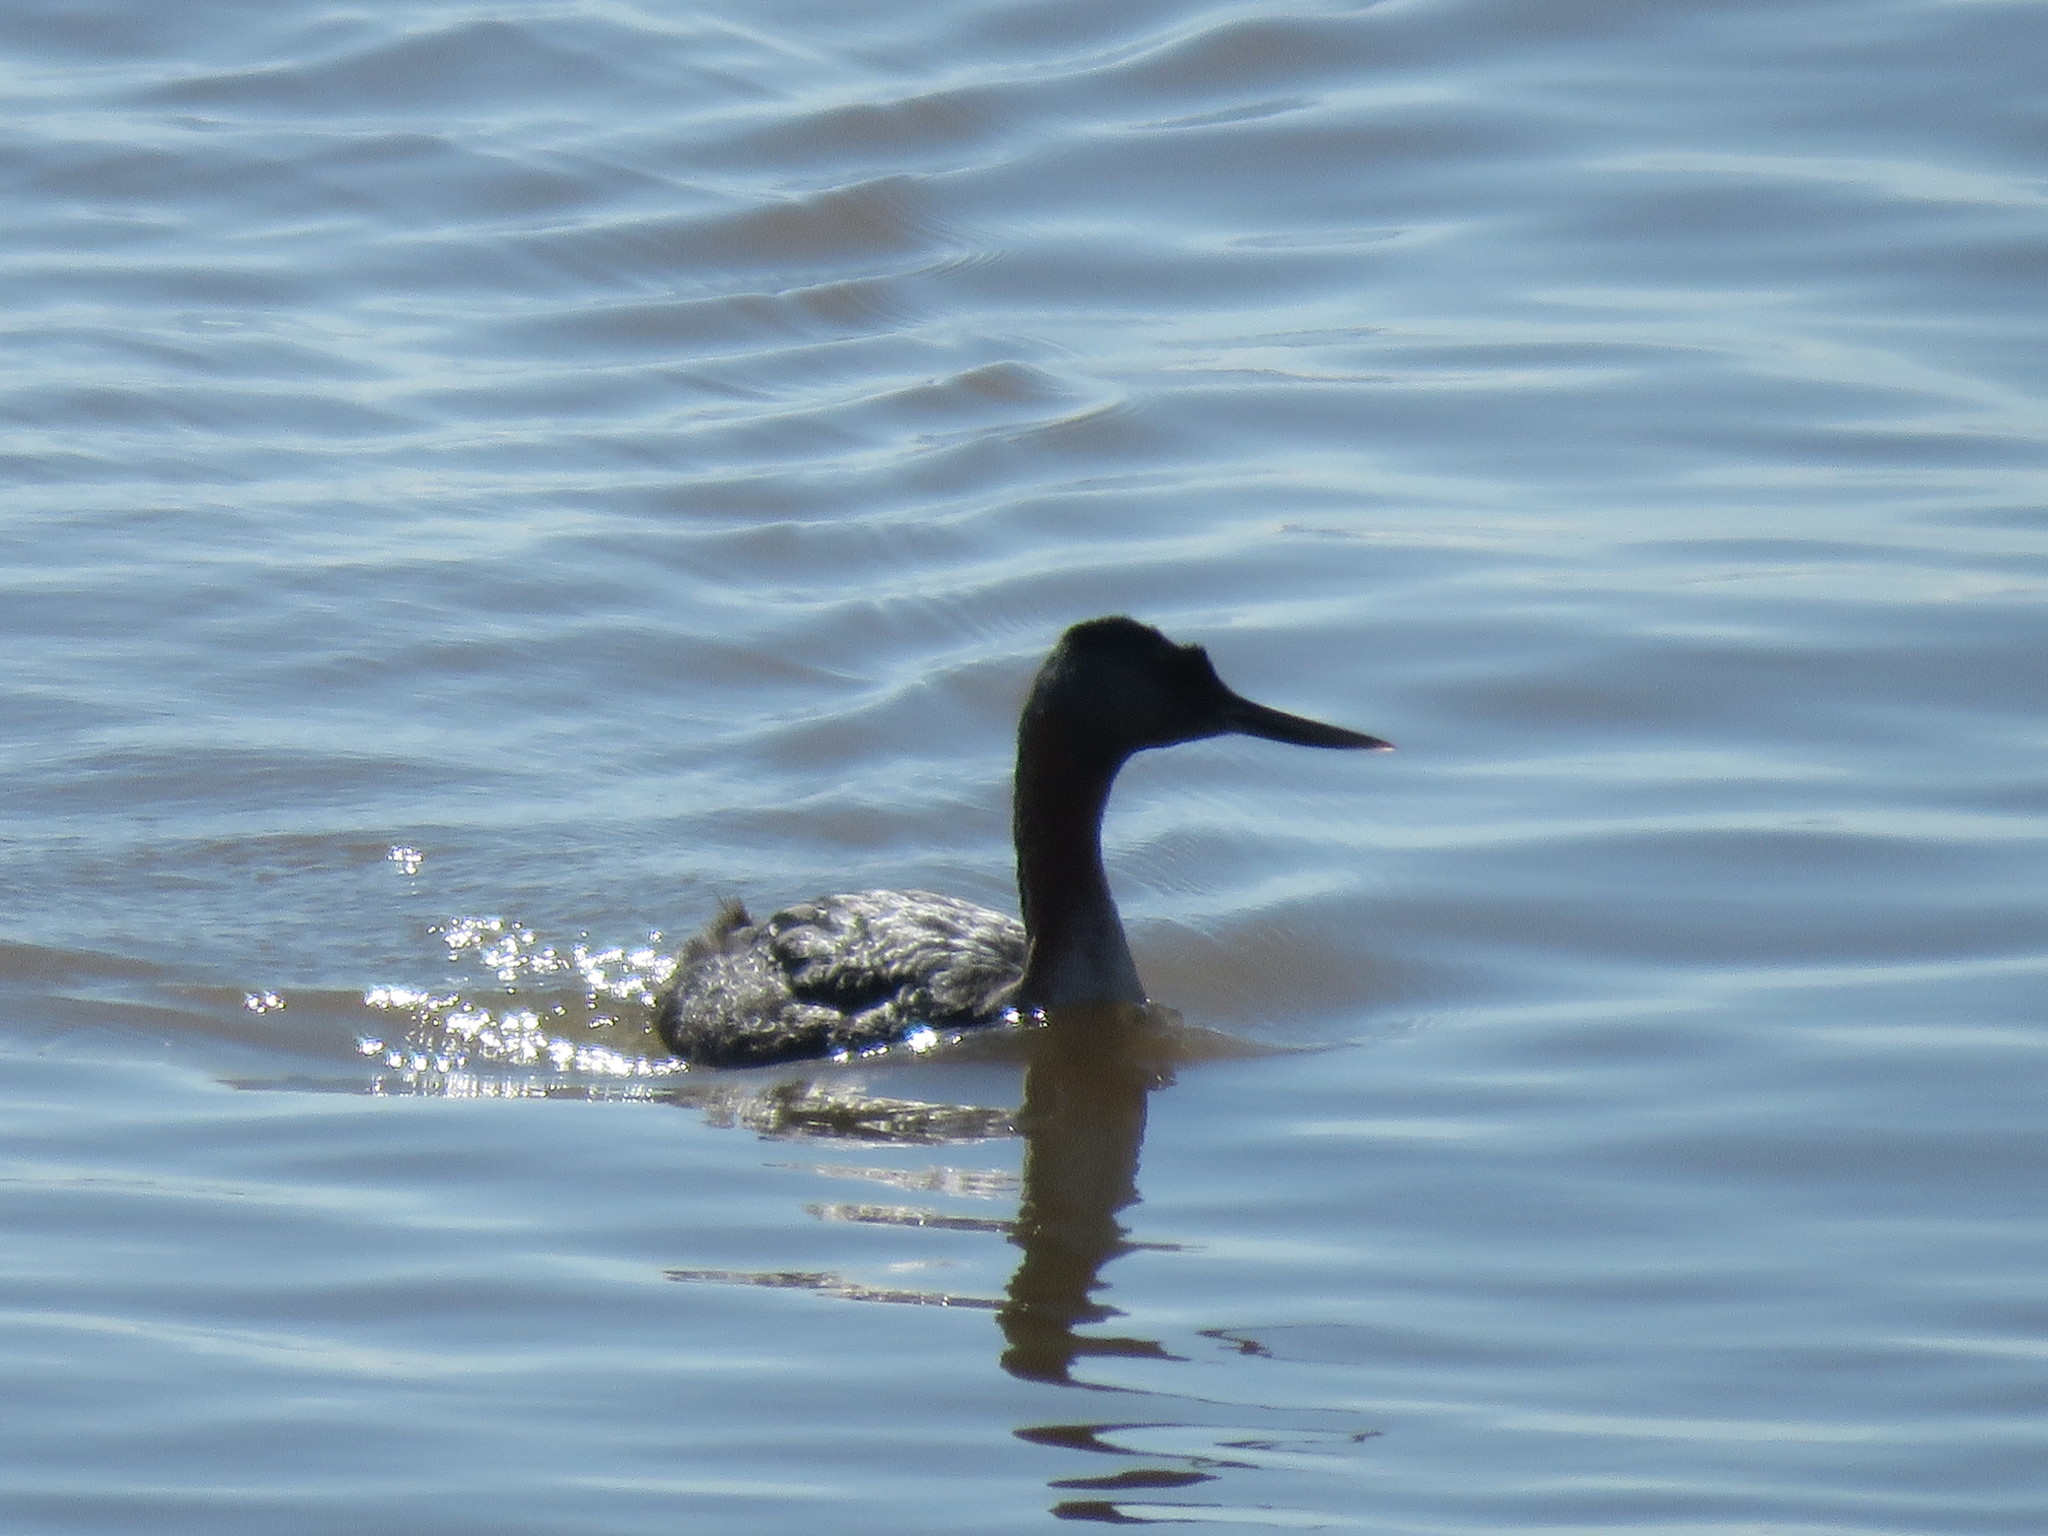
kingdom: Animalia
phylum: Chordata
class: Aves
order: Podicipediformes
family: Podicipedidae
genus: Podiceps
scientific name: Podiceps major
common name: Great grebe
